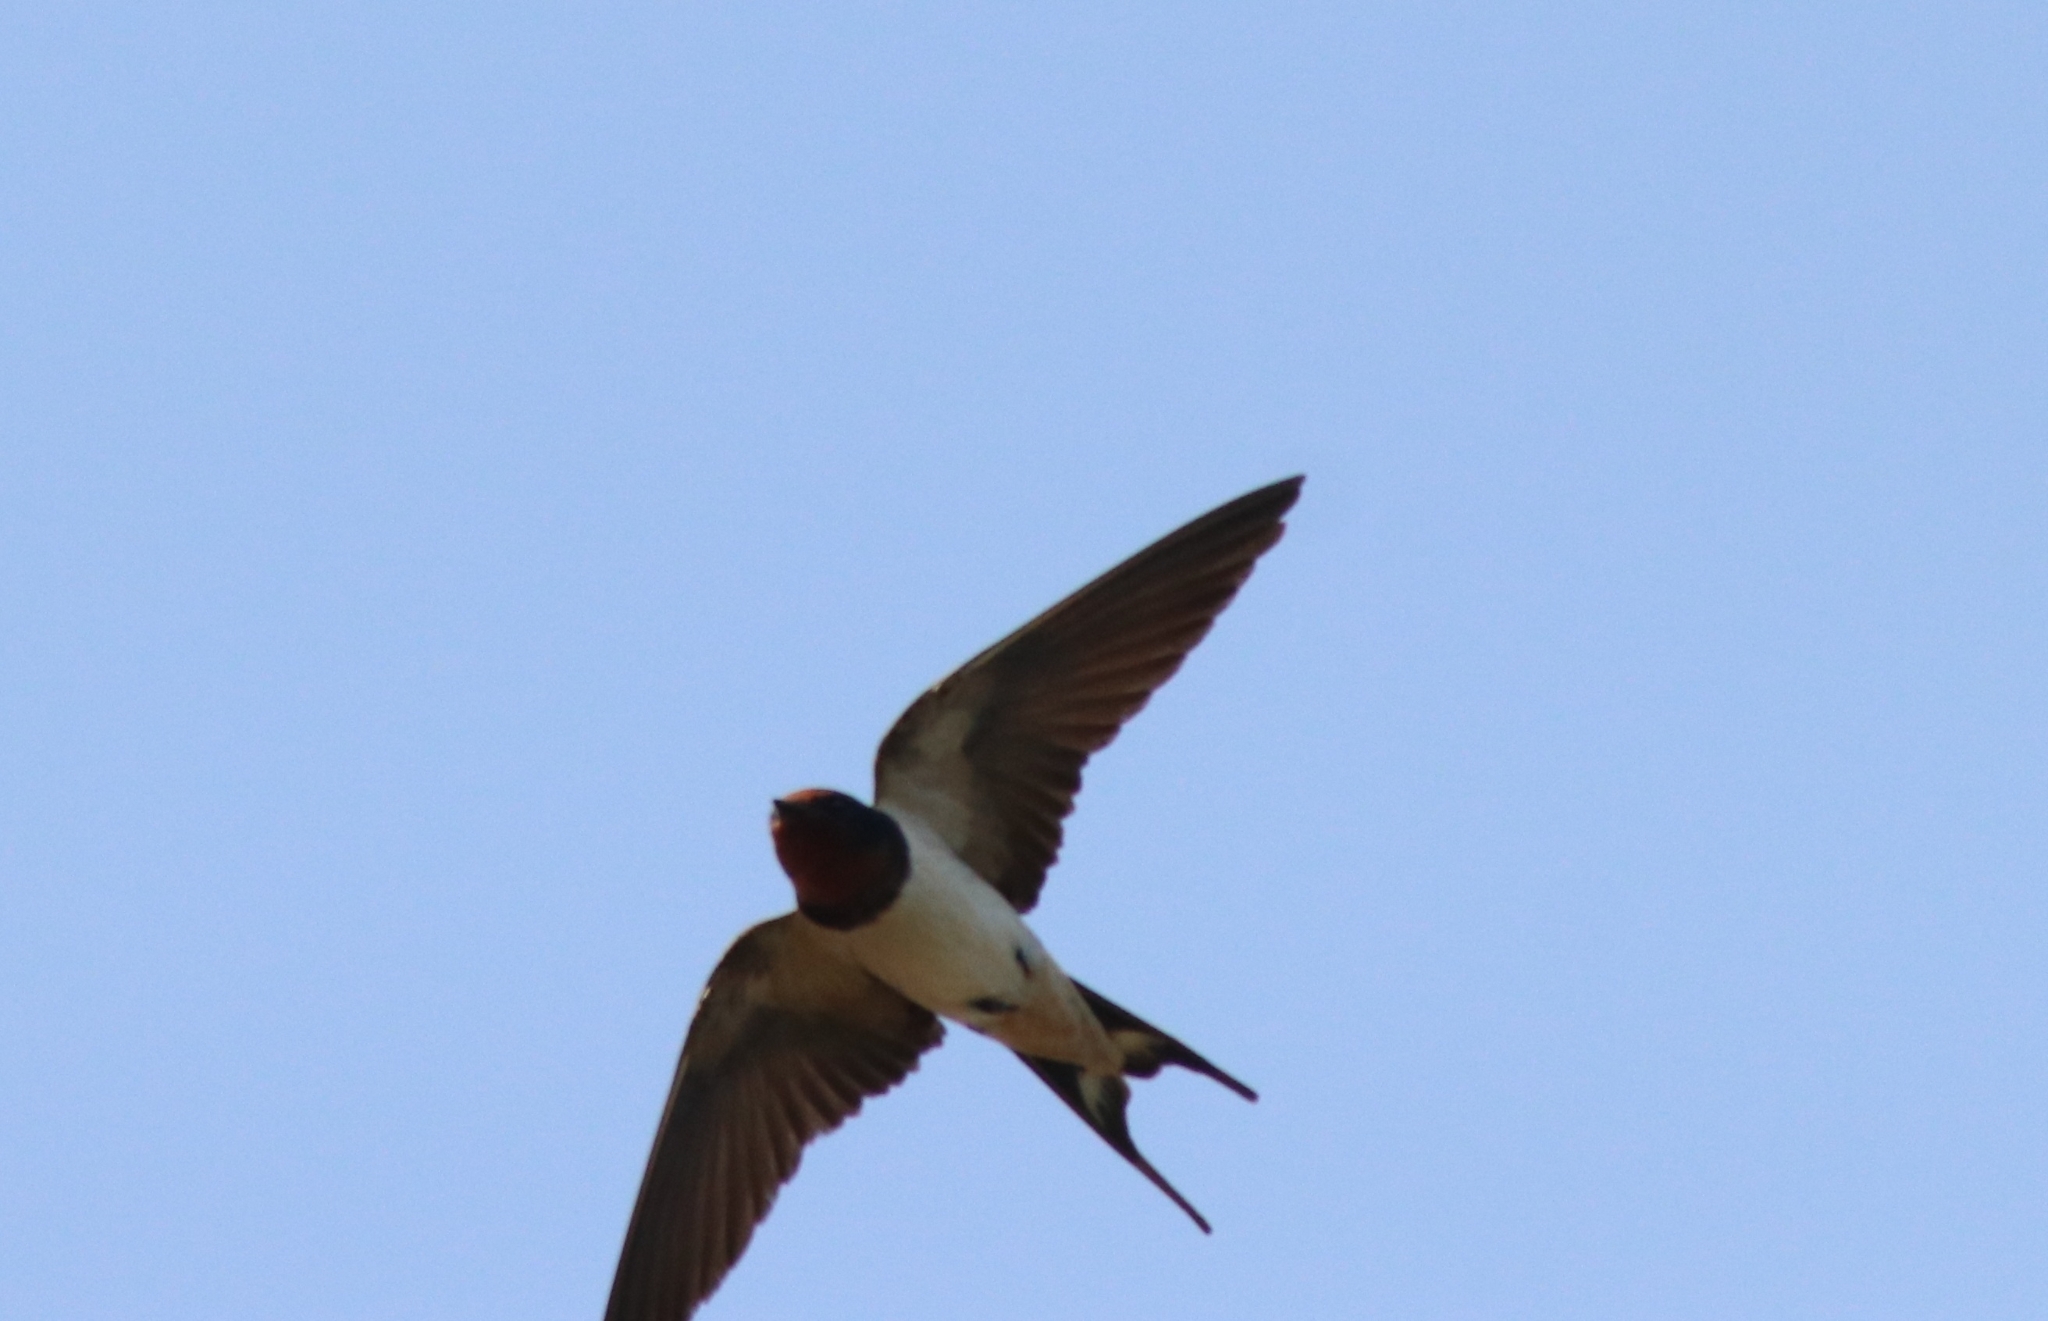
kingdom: Animalia
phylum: Chordata
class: Aves
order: Passeriformes
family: Hirundinidae
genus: Hirundo
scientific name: Hirundo rustica
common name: Barn swallow
